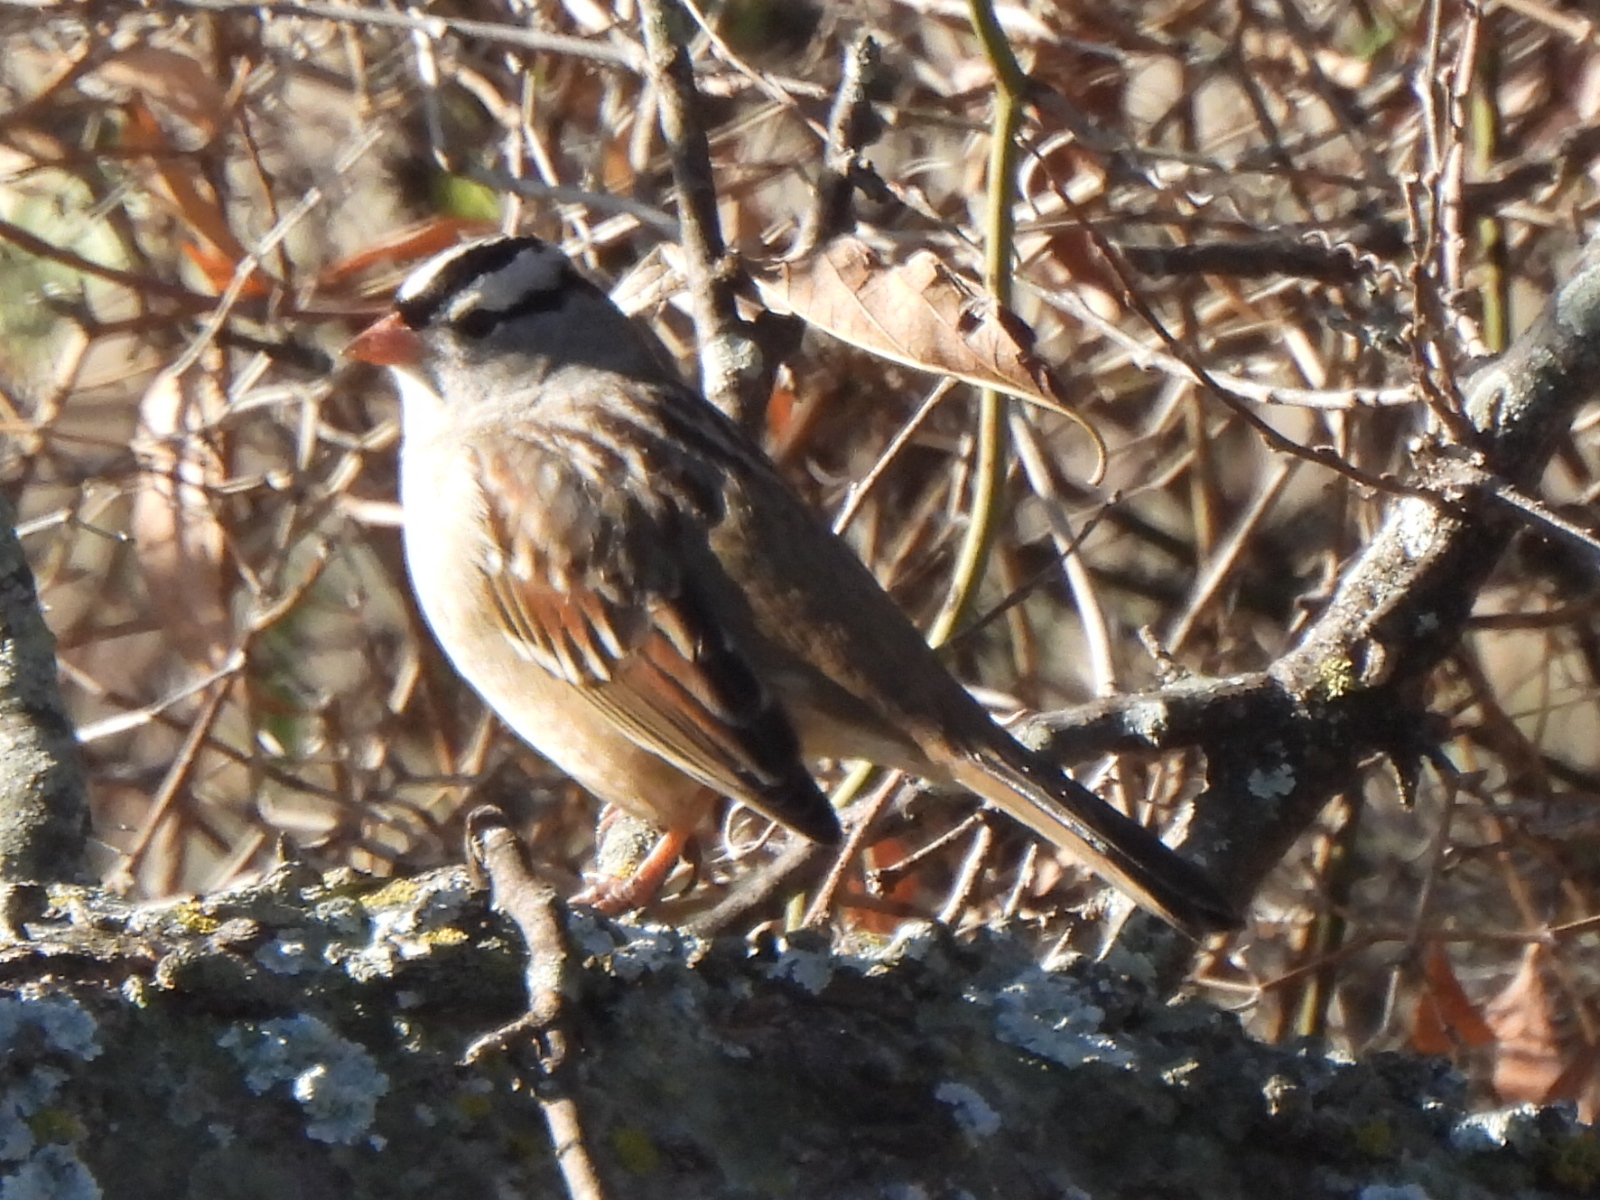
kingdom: Animalia
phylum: Chordata
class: Aves
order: Passeriformes
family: Passerellidae
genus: Zonotrichia
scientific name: Zonotrichia leucophrys
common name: White-crowned sparrow
